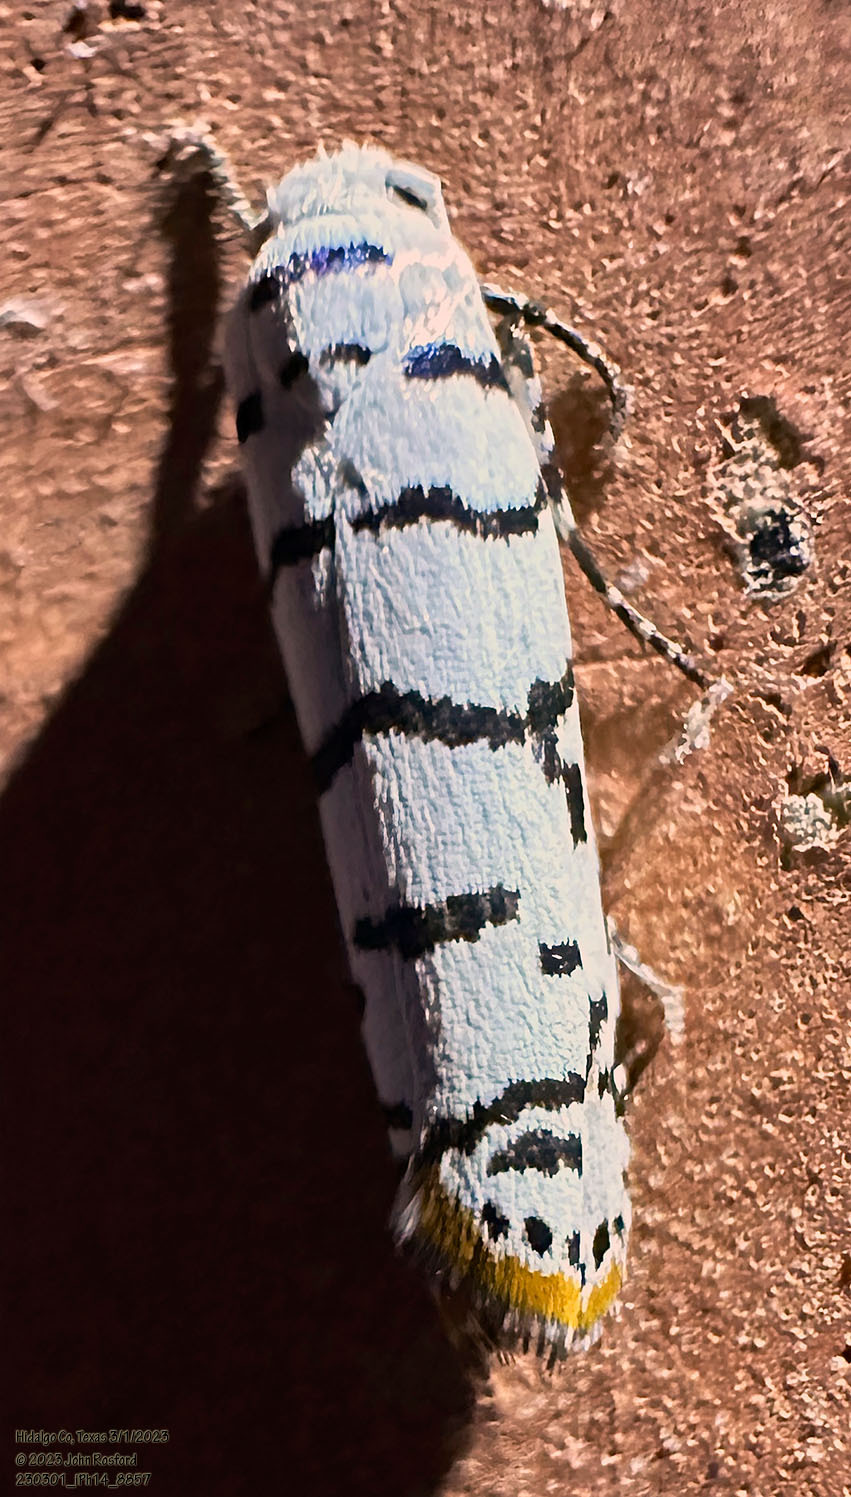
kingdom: Animalia
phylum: Arthropoda
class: Insecta
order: Lepidoptera
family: Ethmiidae
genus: Ethmia
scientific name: Ethmia delliella
